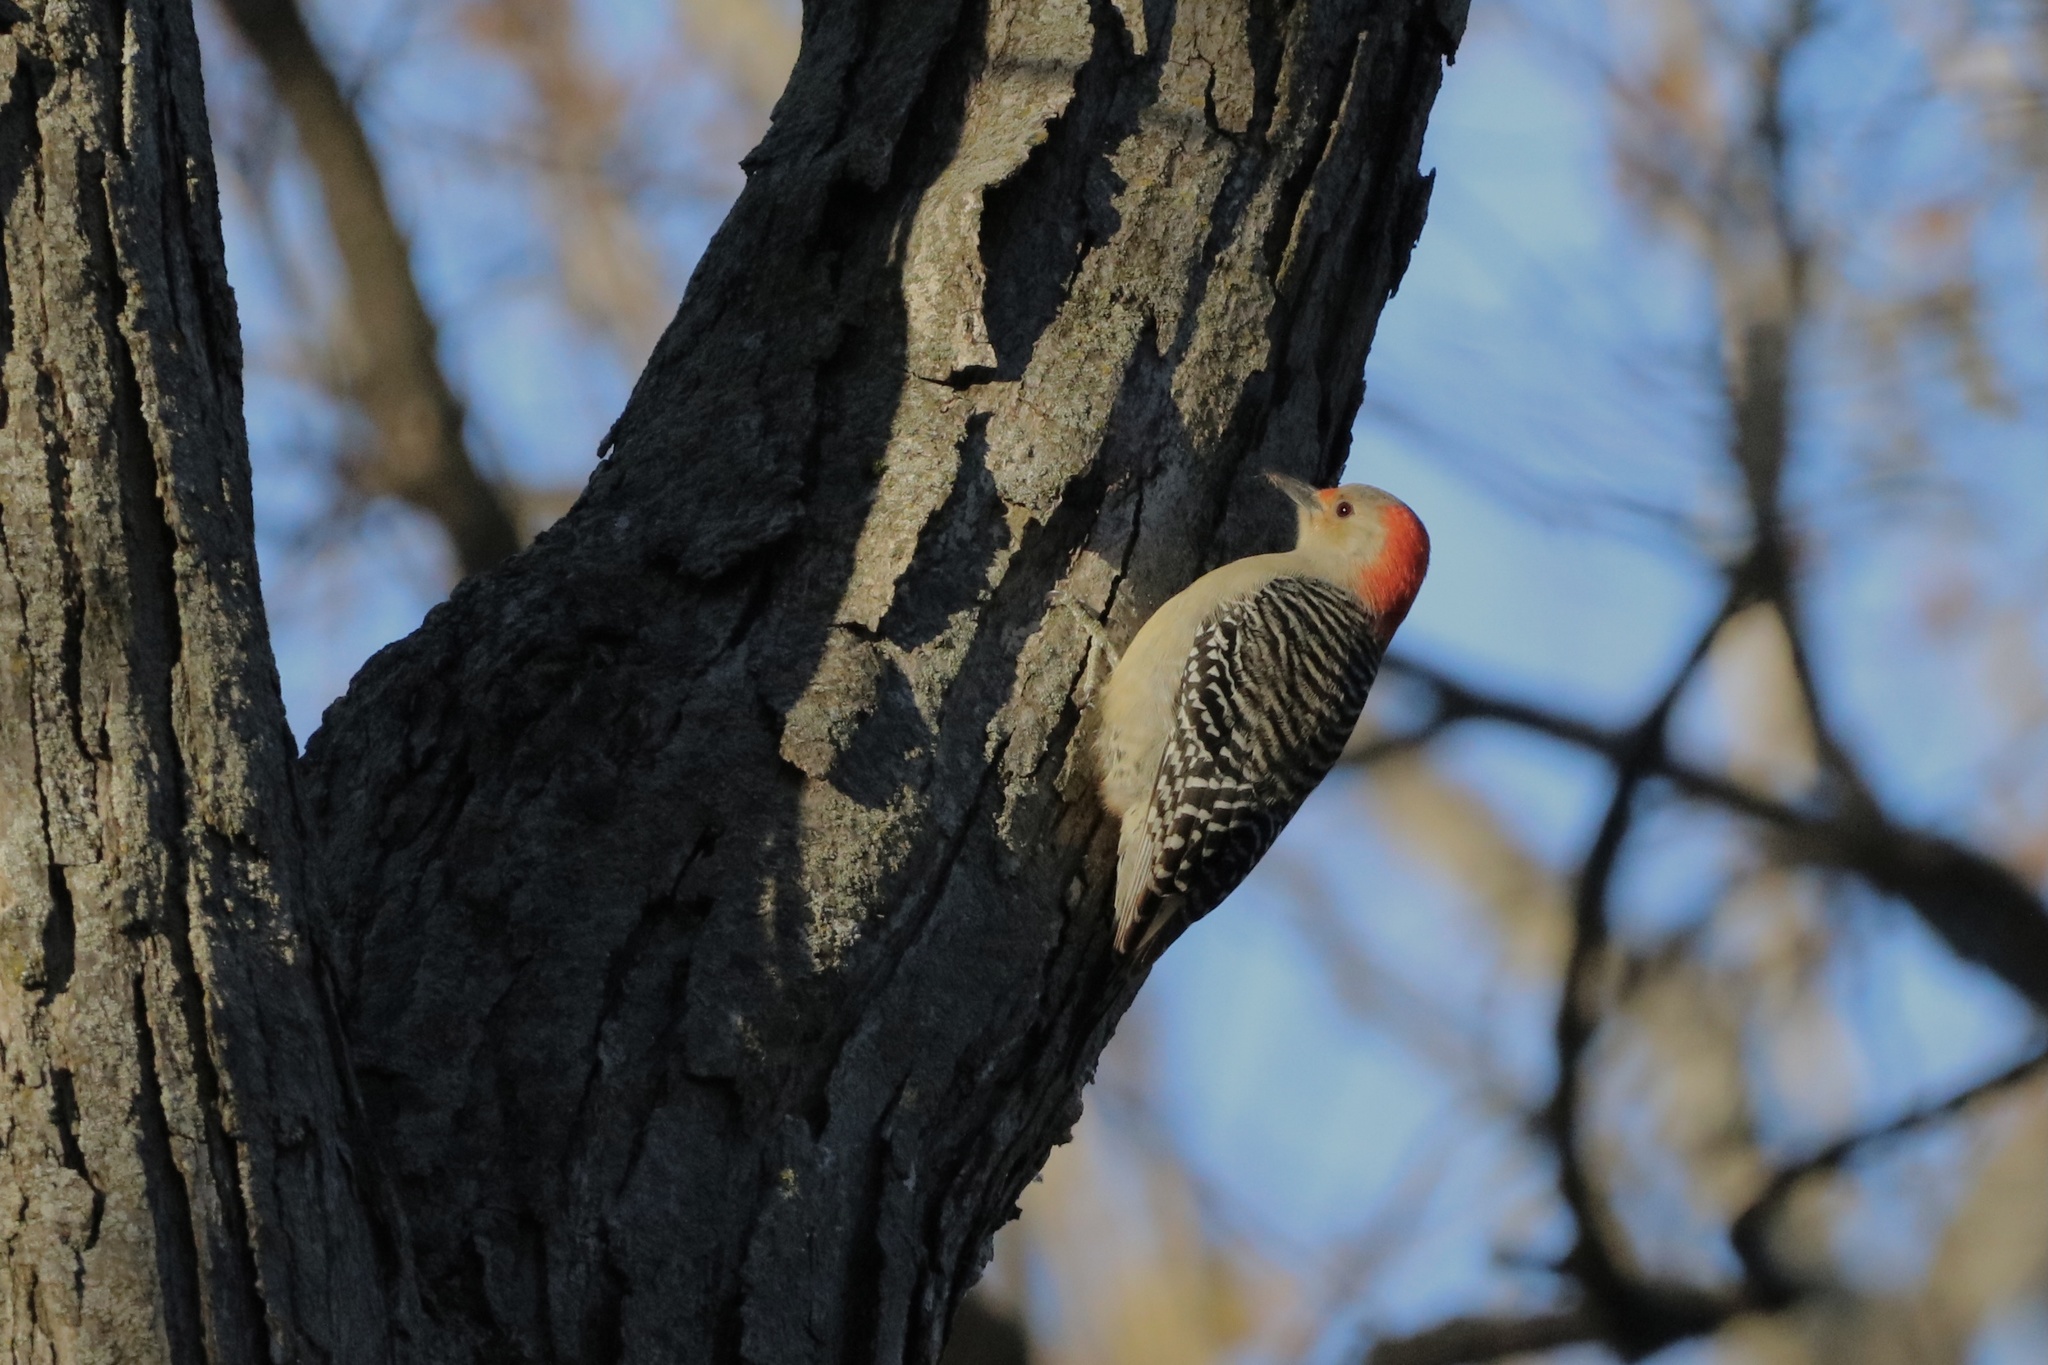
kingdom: Animalia
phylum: Chordata
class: Aves
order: Piciformes
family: Picidae
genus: Melanerpes
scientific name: Melanerpes carolinus
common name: Red-bellied woodpecker
